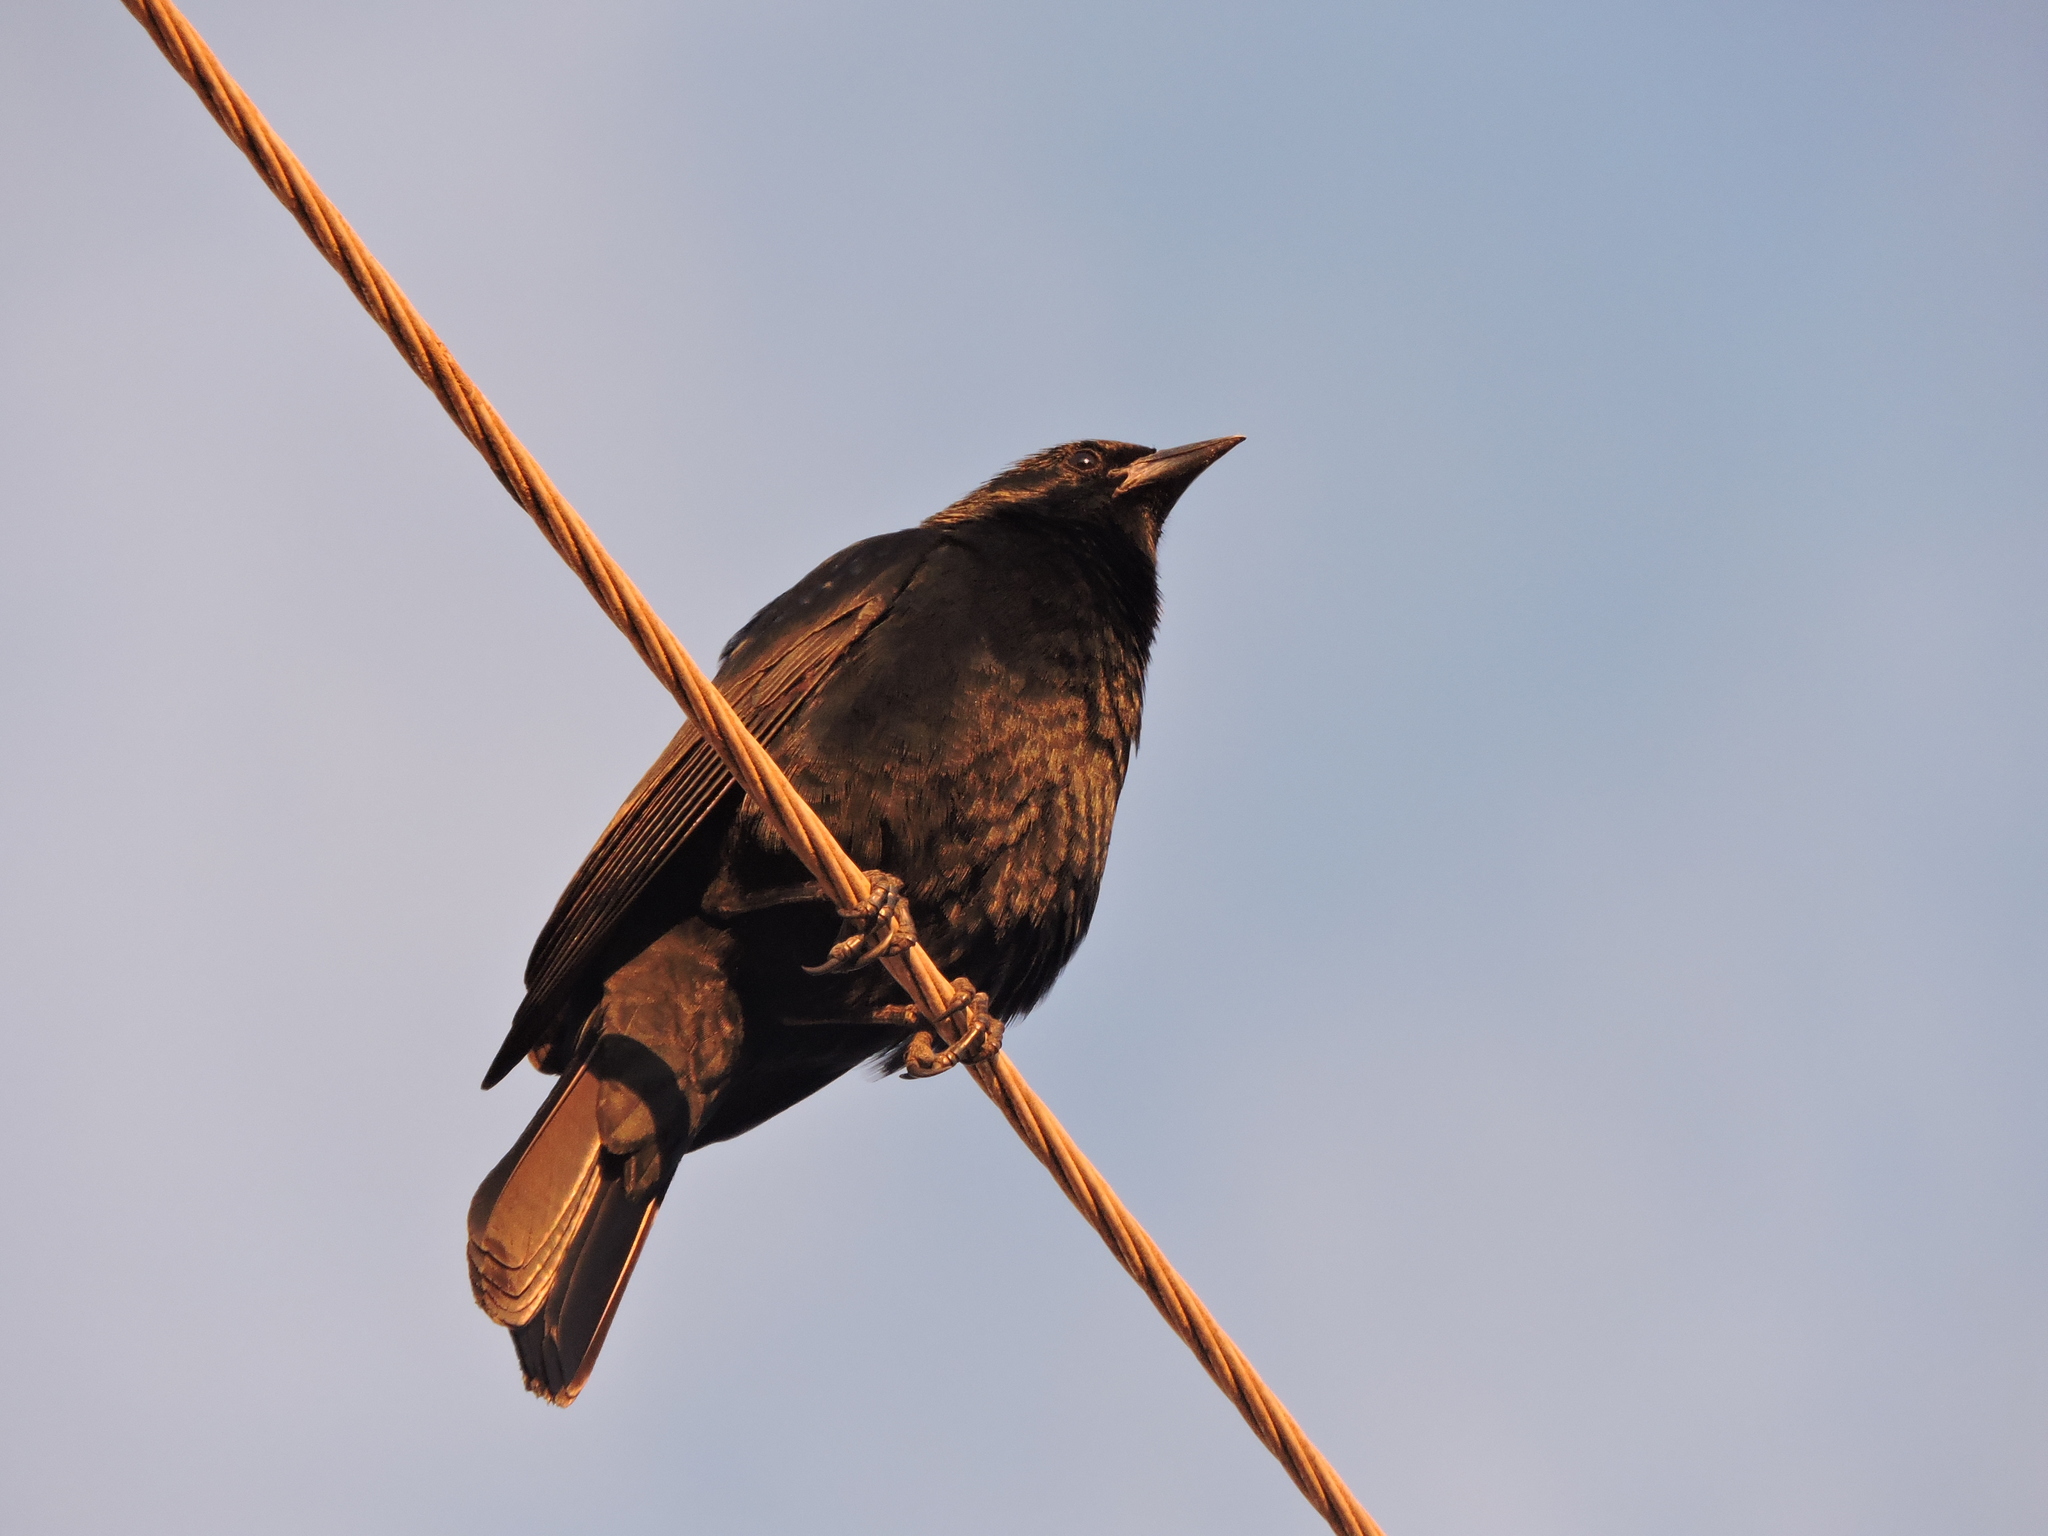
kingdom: Animalia
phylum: Chordata
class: Aves
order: Passeriformes
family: Icteridae
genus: Gnorimopsar
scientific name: Gnorimopsar chopi
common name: Chopi blackbird
